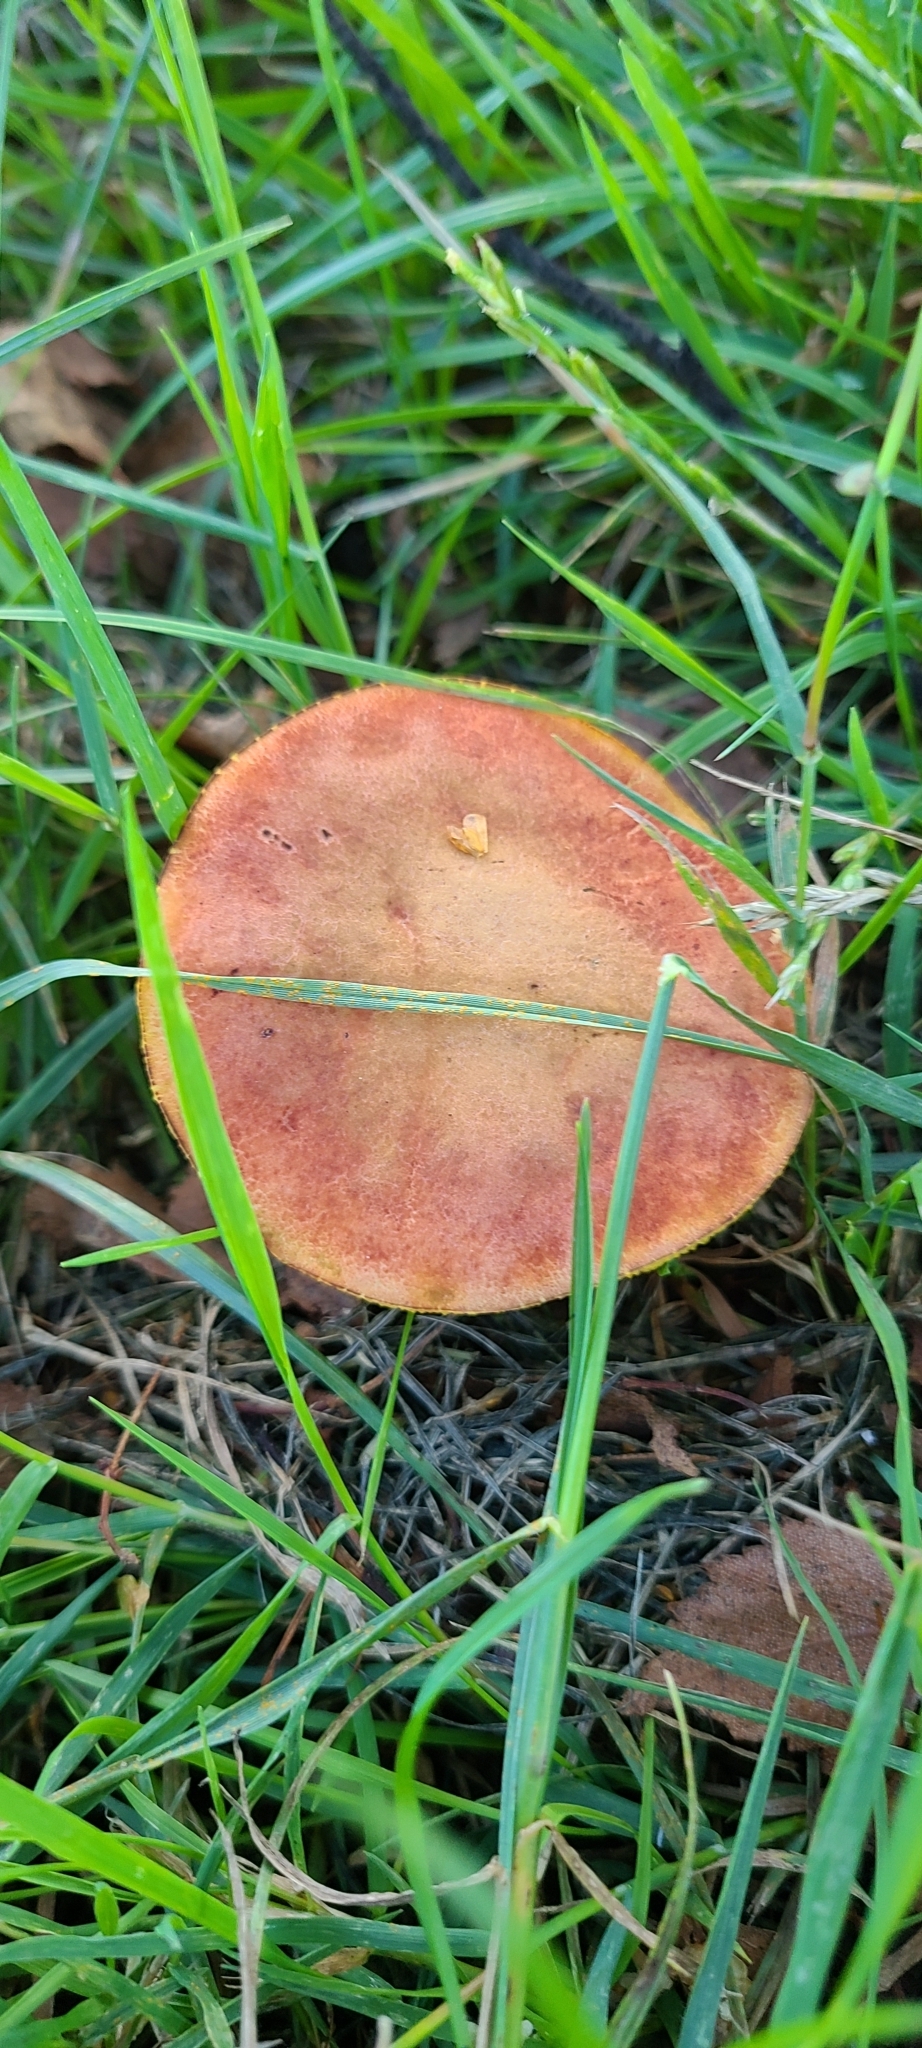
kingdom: Fungi
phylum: Basidiomycota
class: Agaricomycetes
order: Boletales
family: Boletaceae
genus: Xerocomellus
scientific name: Xerocomellus ripariellus
